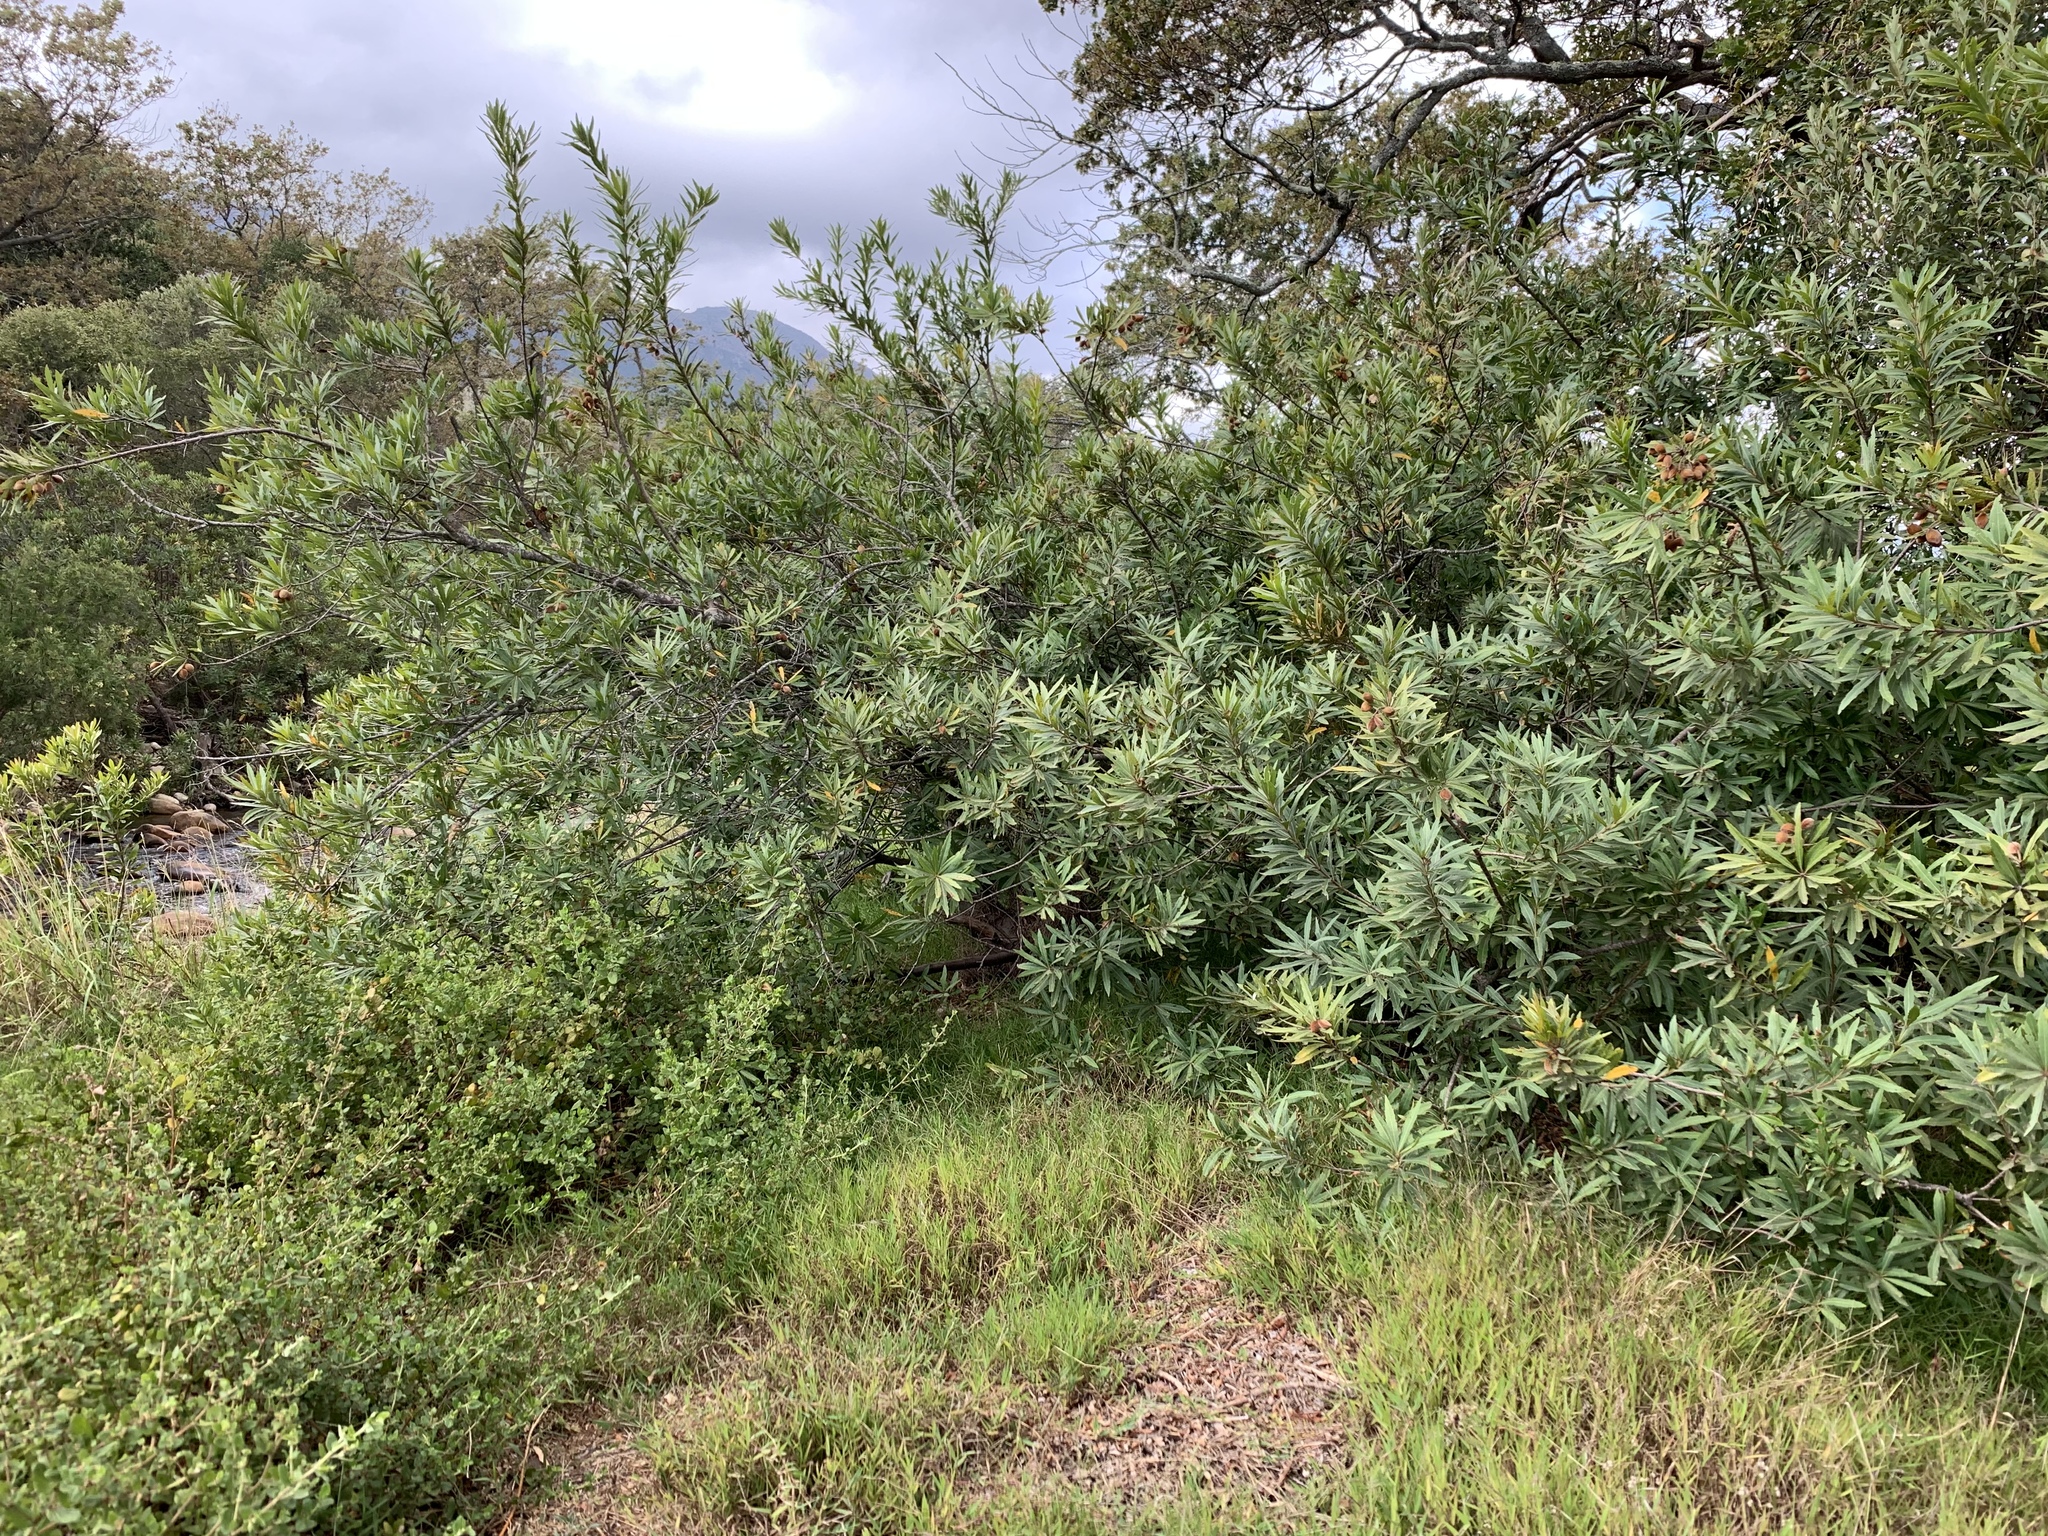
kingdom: Plantae
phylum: Tracheophyta
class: Magnoliopsida
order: Proteales
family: Proteaceae
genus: Brabejum
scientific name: Brabejum stellatifolium
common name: Wild almond
